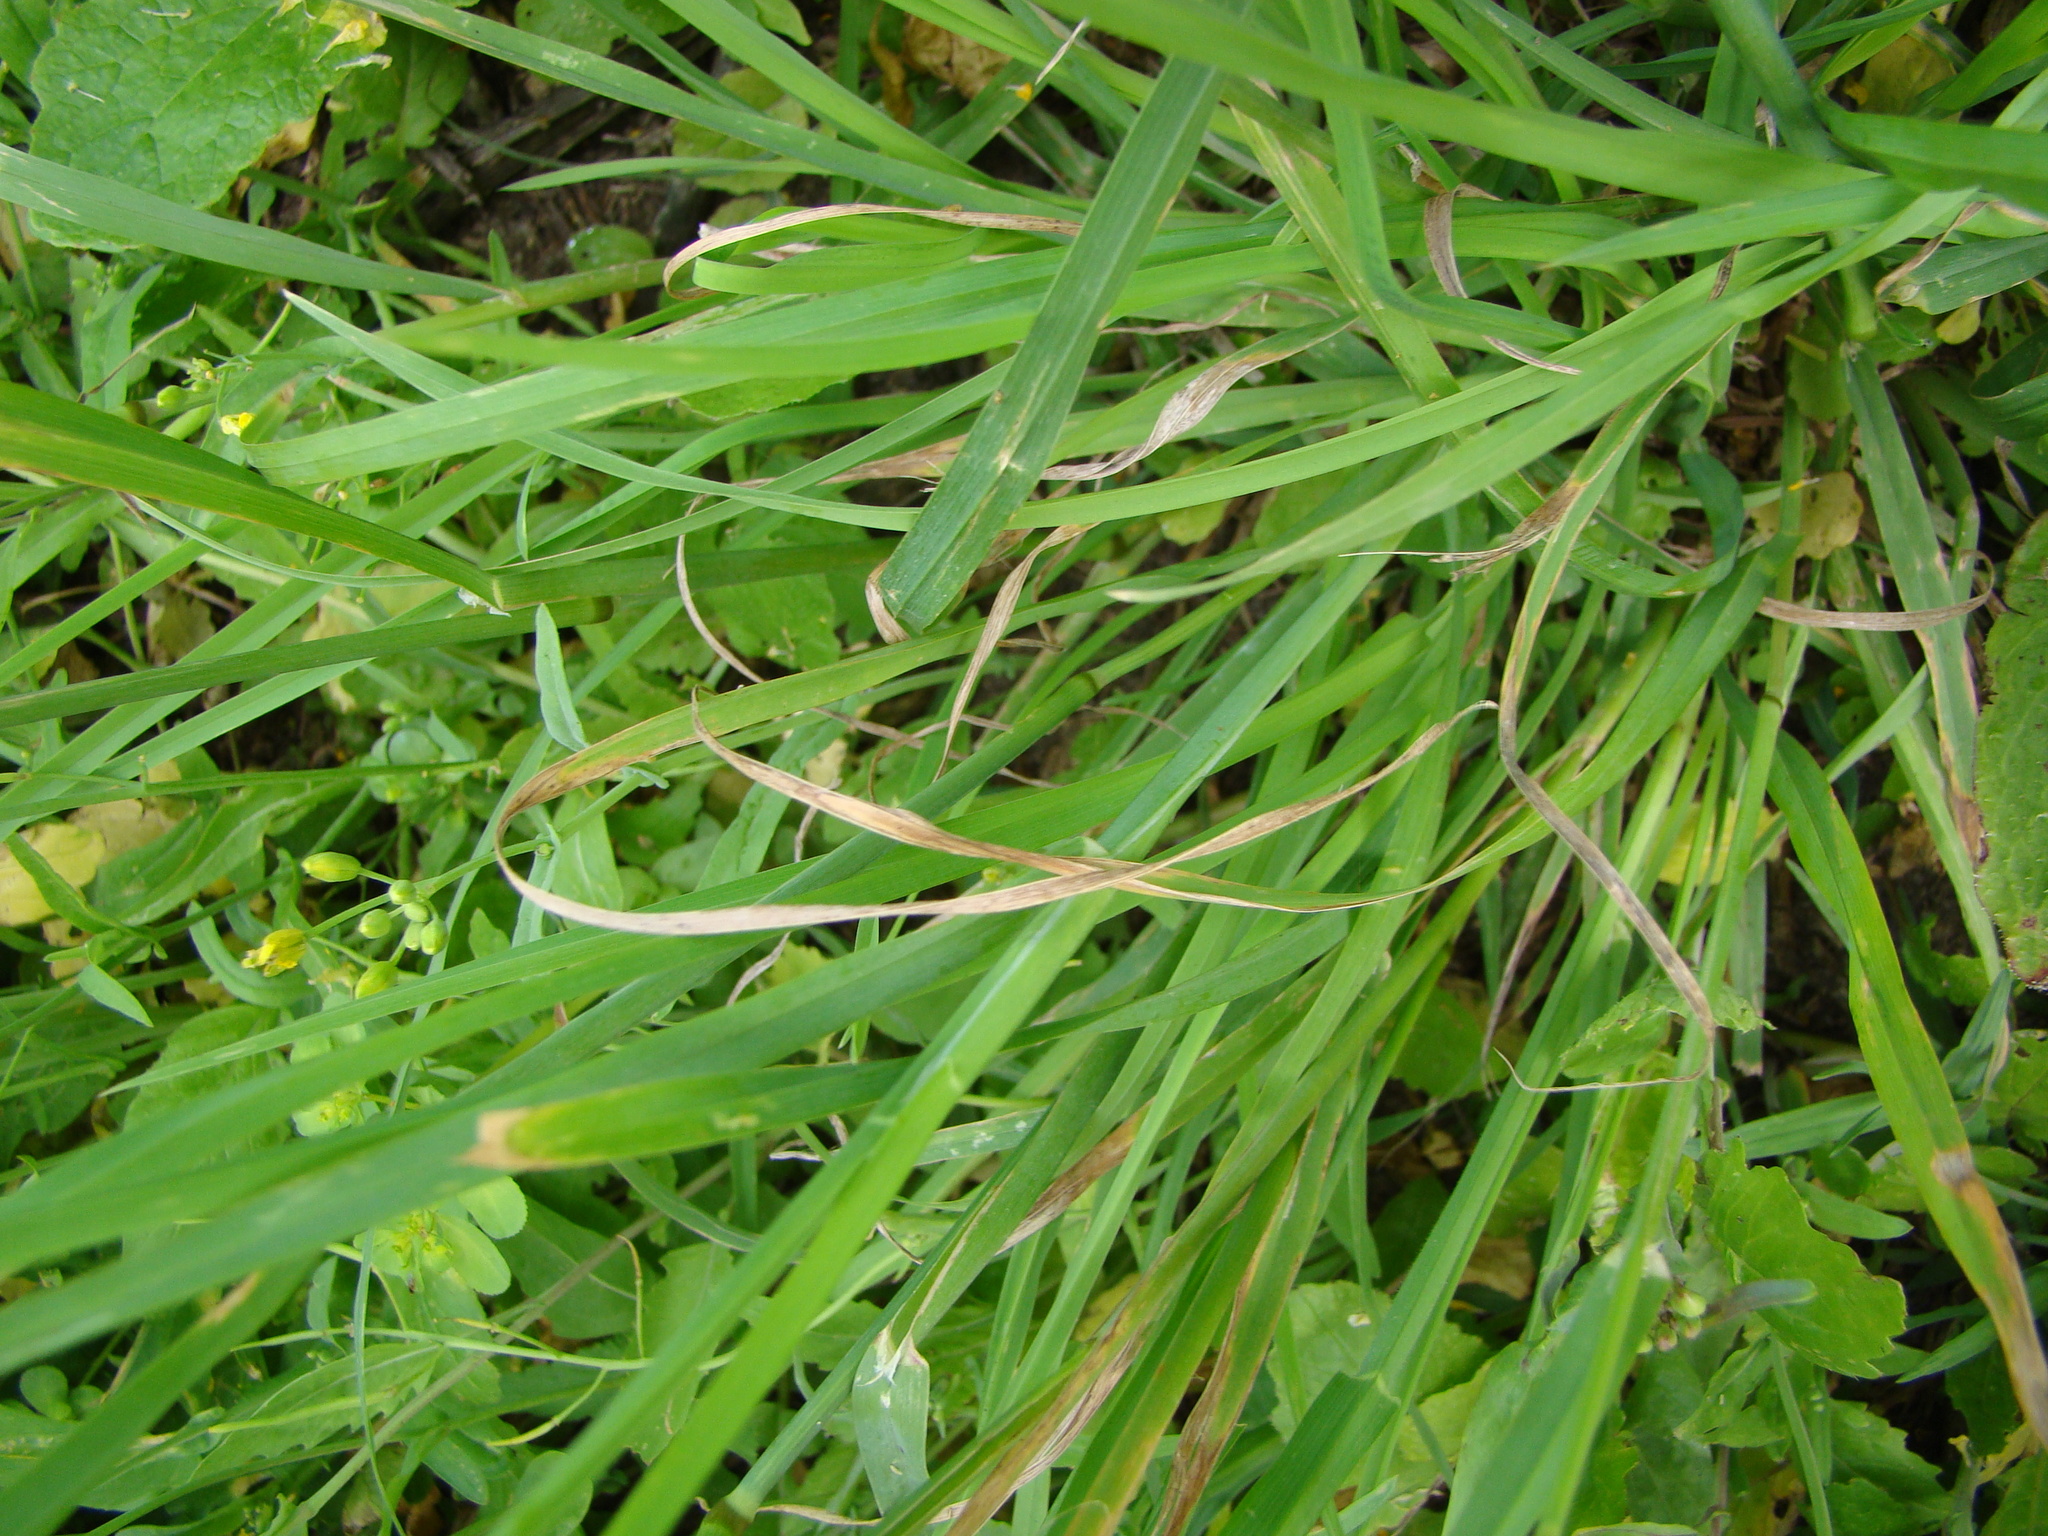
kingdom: Plantae
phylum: Tracheophyta
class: Liliopsida
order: Poales
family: Poaceae
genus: Dactylis
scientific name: Dactylis glomerata
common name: Orchardgrass
